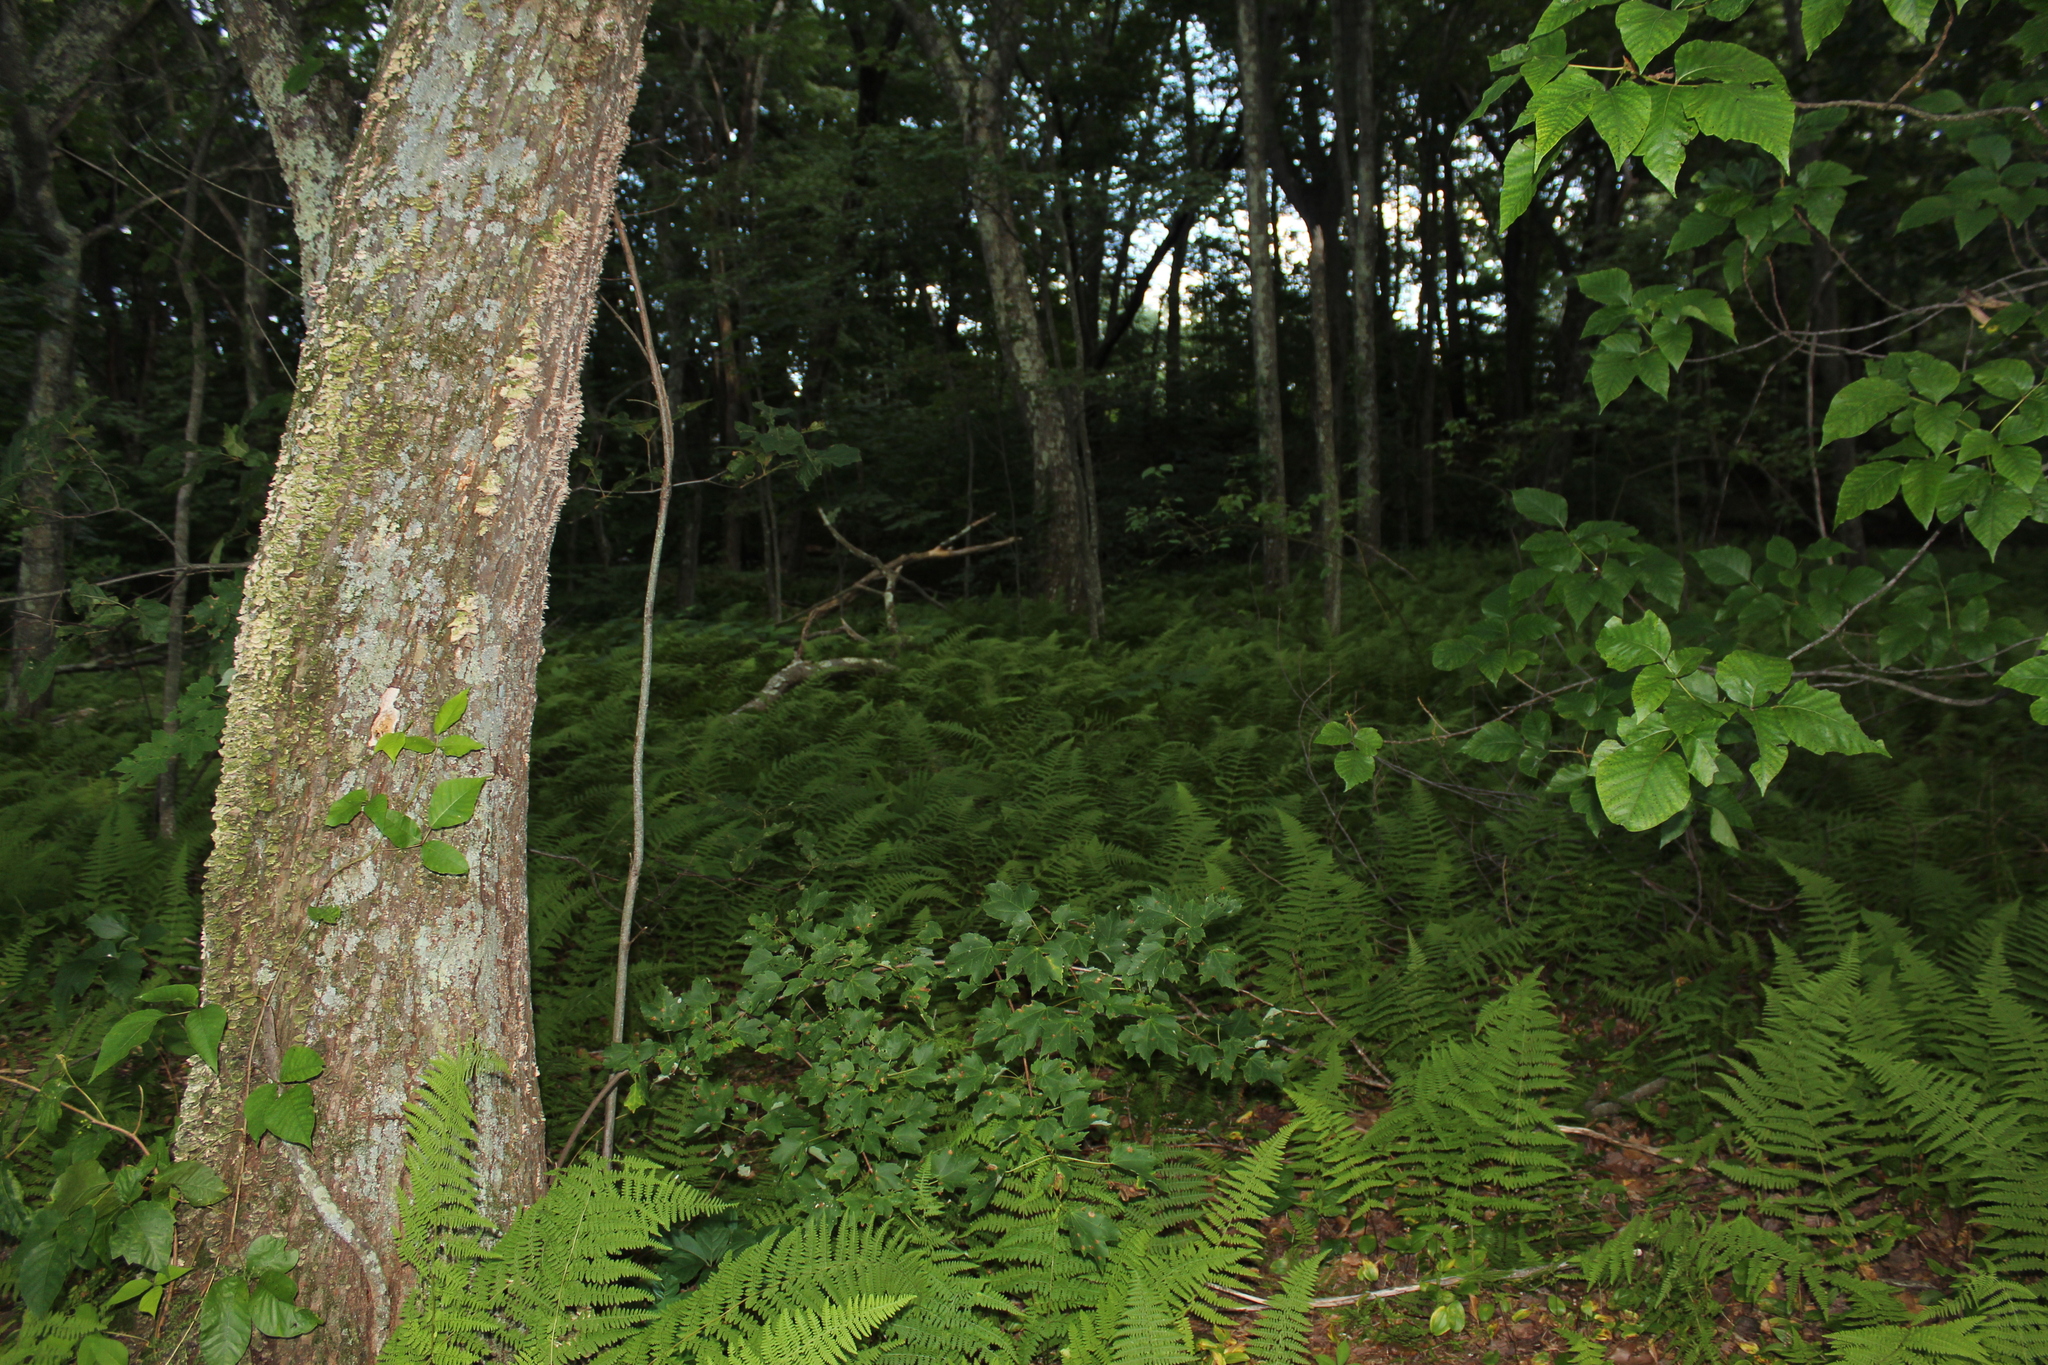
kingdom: Plantae
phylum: Tracheophyta
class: Polypodiopsida
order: Polypodiales
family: Dennstaedtiaceae
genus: Sitobolium
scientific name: Sitobolium punctilobum
